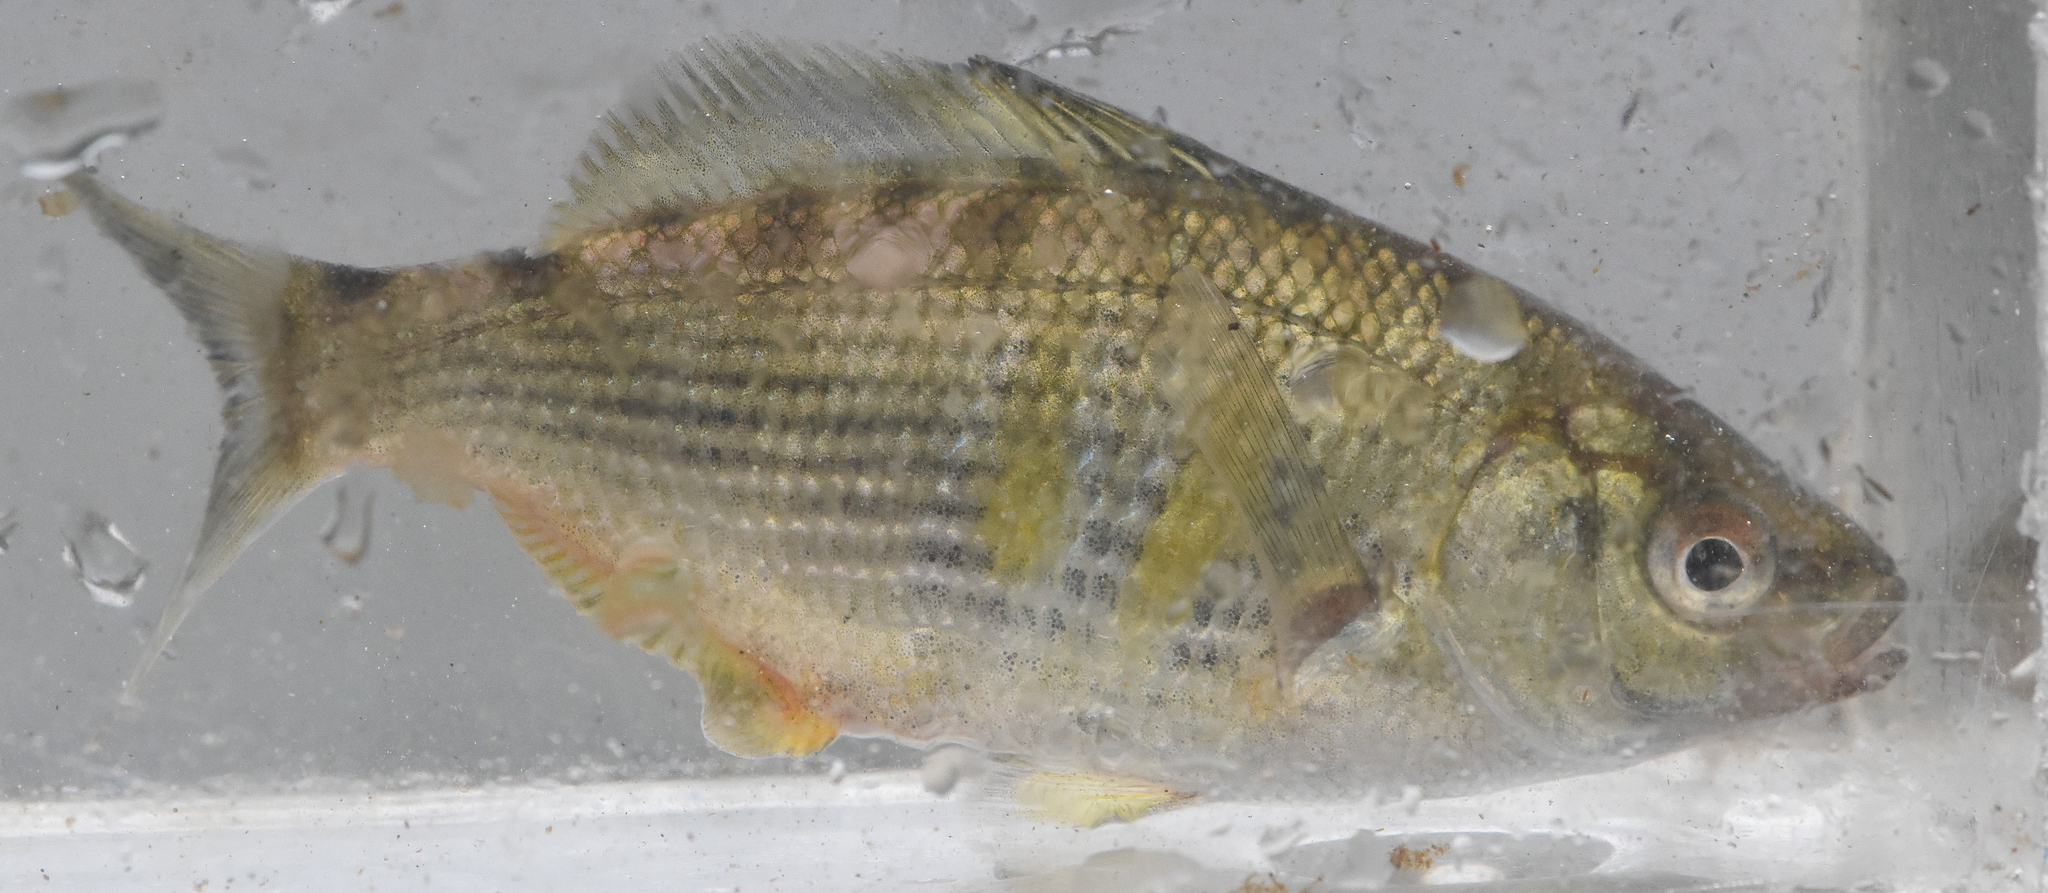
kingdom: Animalia
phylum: Chordata
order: Perciformes
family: Embiotocidae
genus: Cymatogaster
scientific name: Cymatogaster aggregata
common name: Shiner perch
